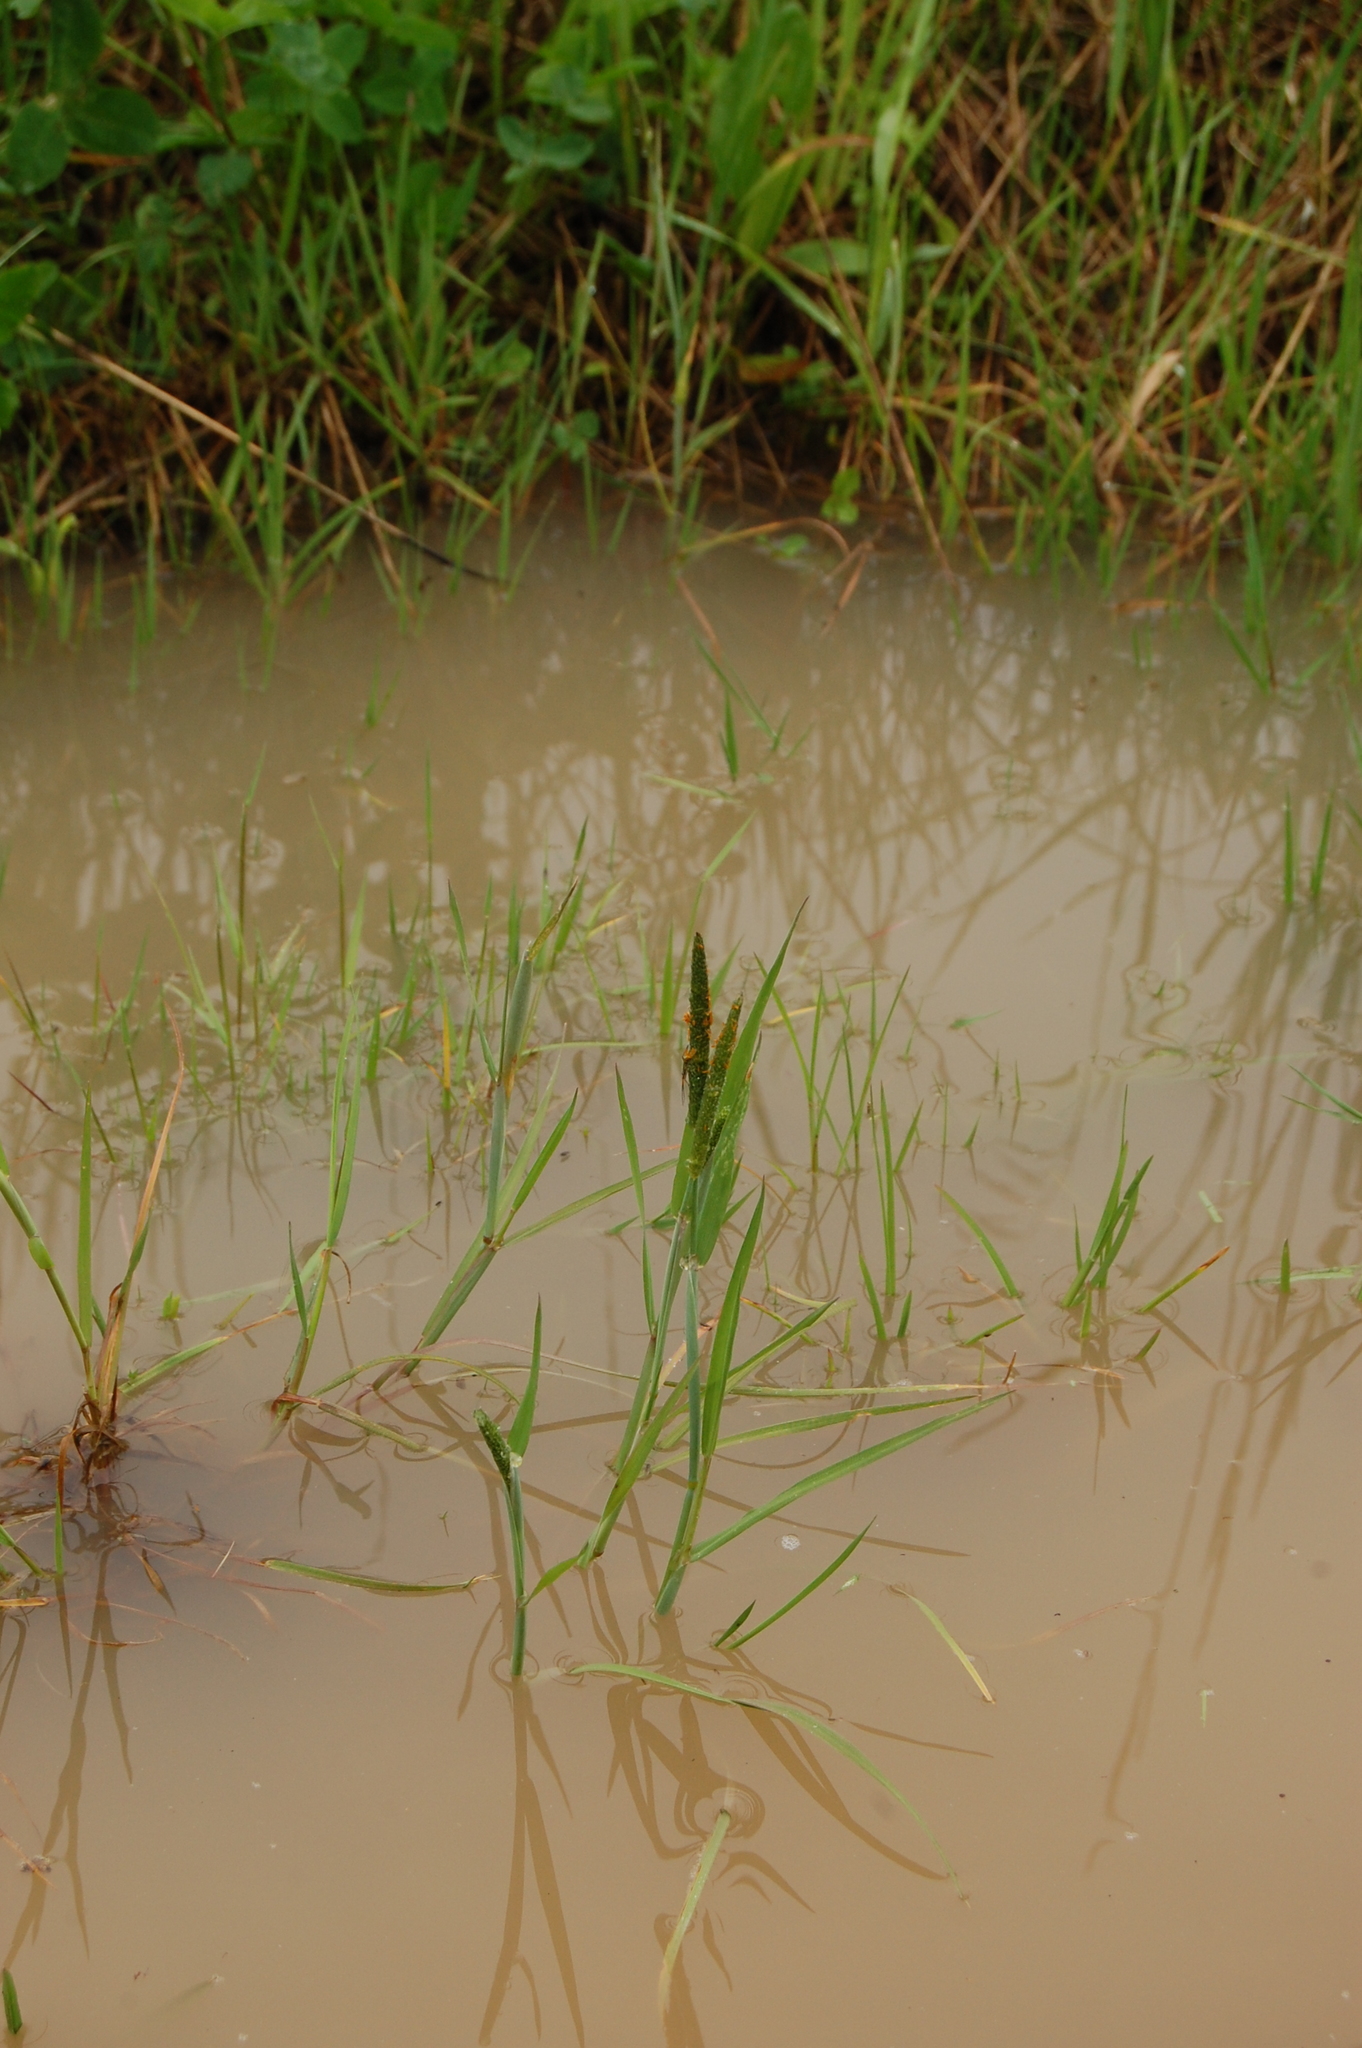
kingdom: Plantae
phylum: Tracheophyta
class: Liliopsida
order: Poales
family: Poaceae
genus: Alopecurus
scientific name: Alopecurus aequalis
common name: Orange foxtail
